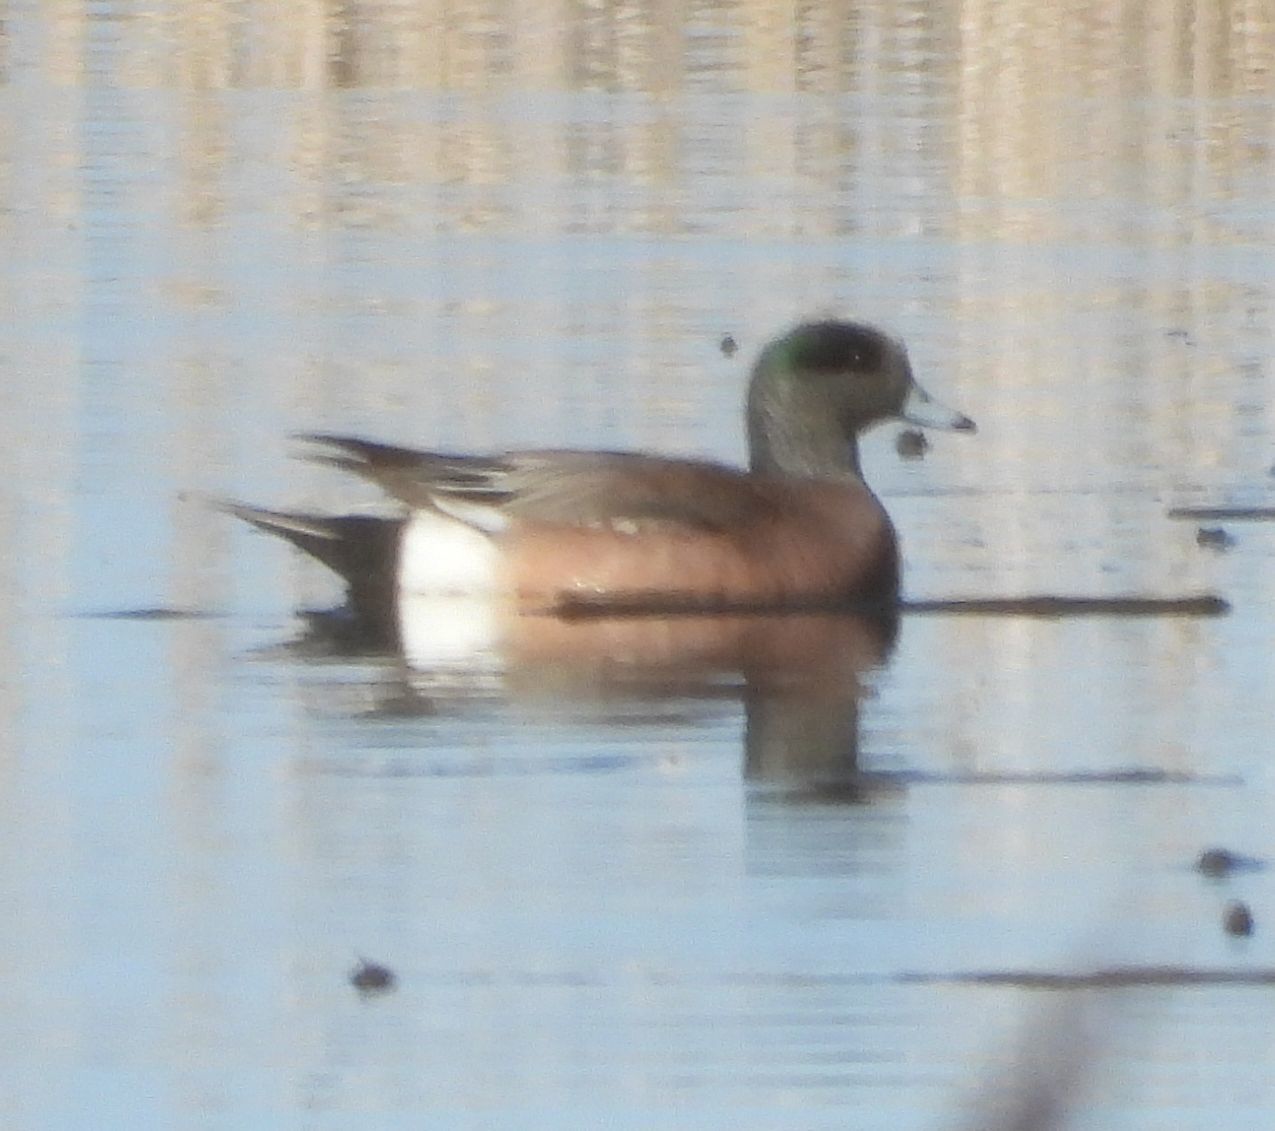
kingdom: Animalia
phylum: Chordata
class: Aves
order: Anseriformes
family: Anatidae
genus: Mareca
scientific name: Mareca americana
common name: American wigeon
